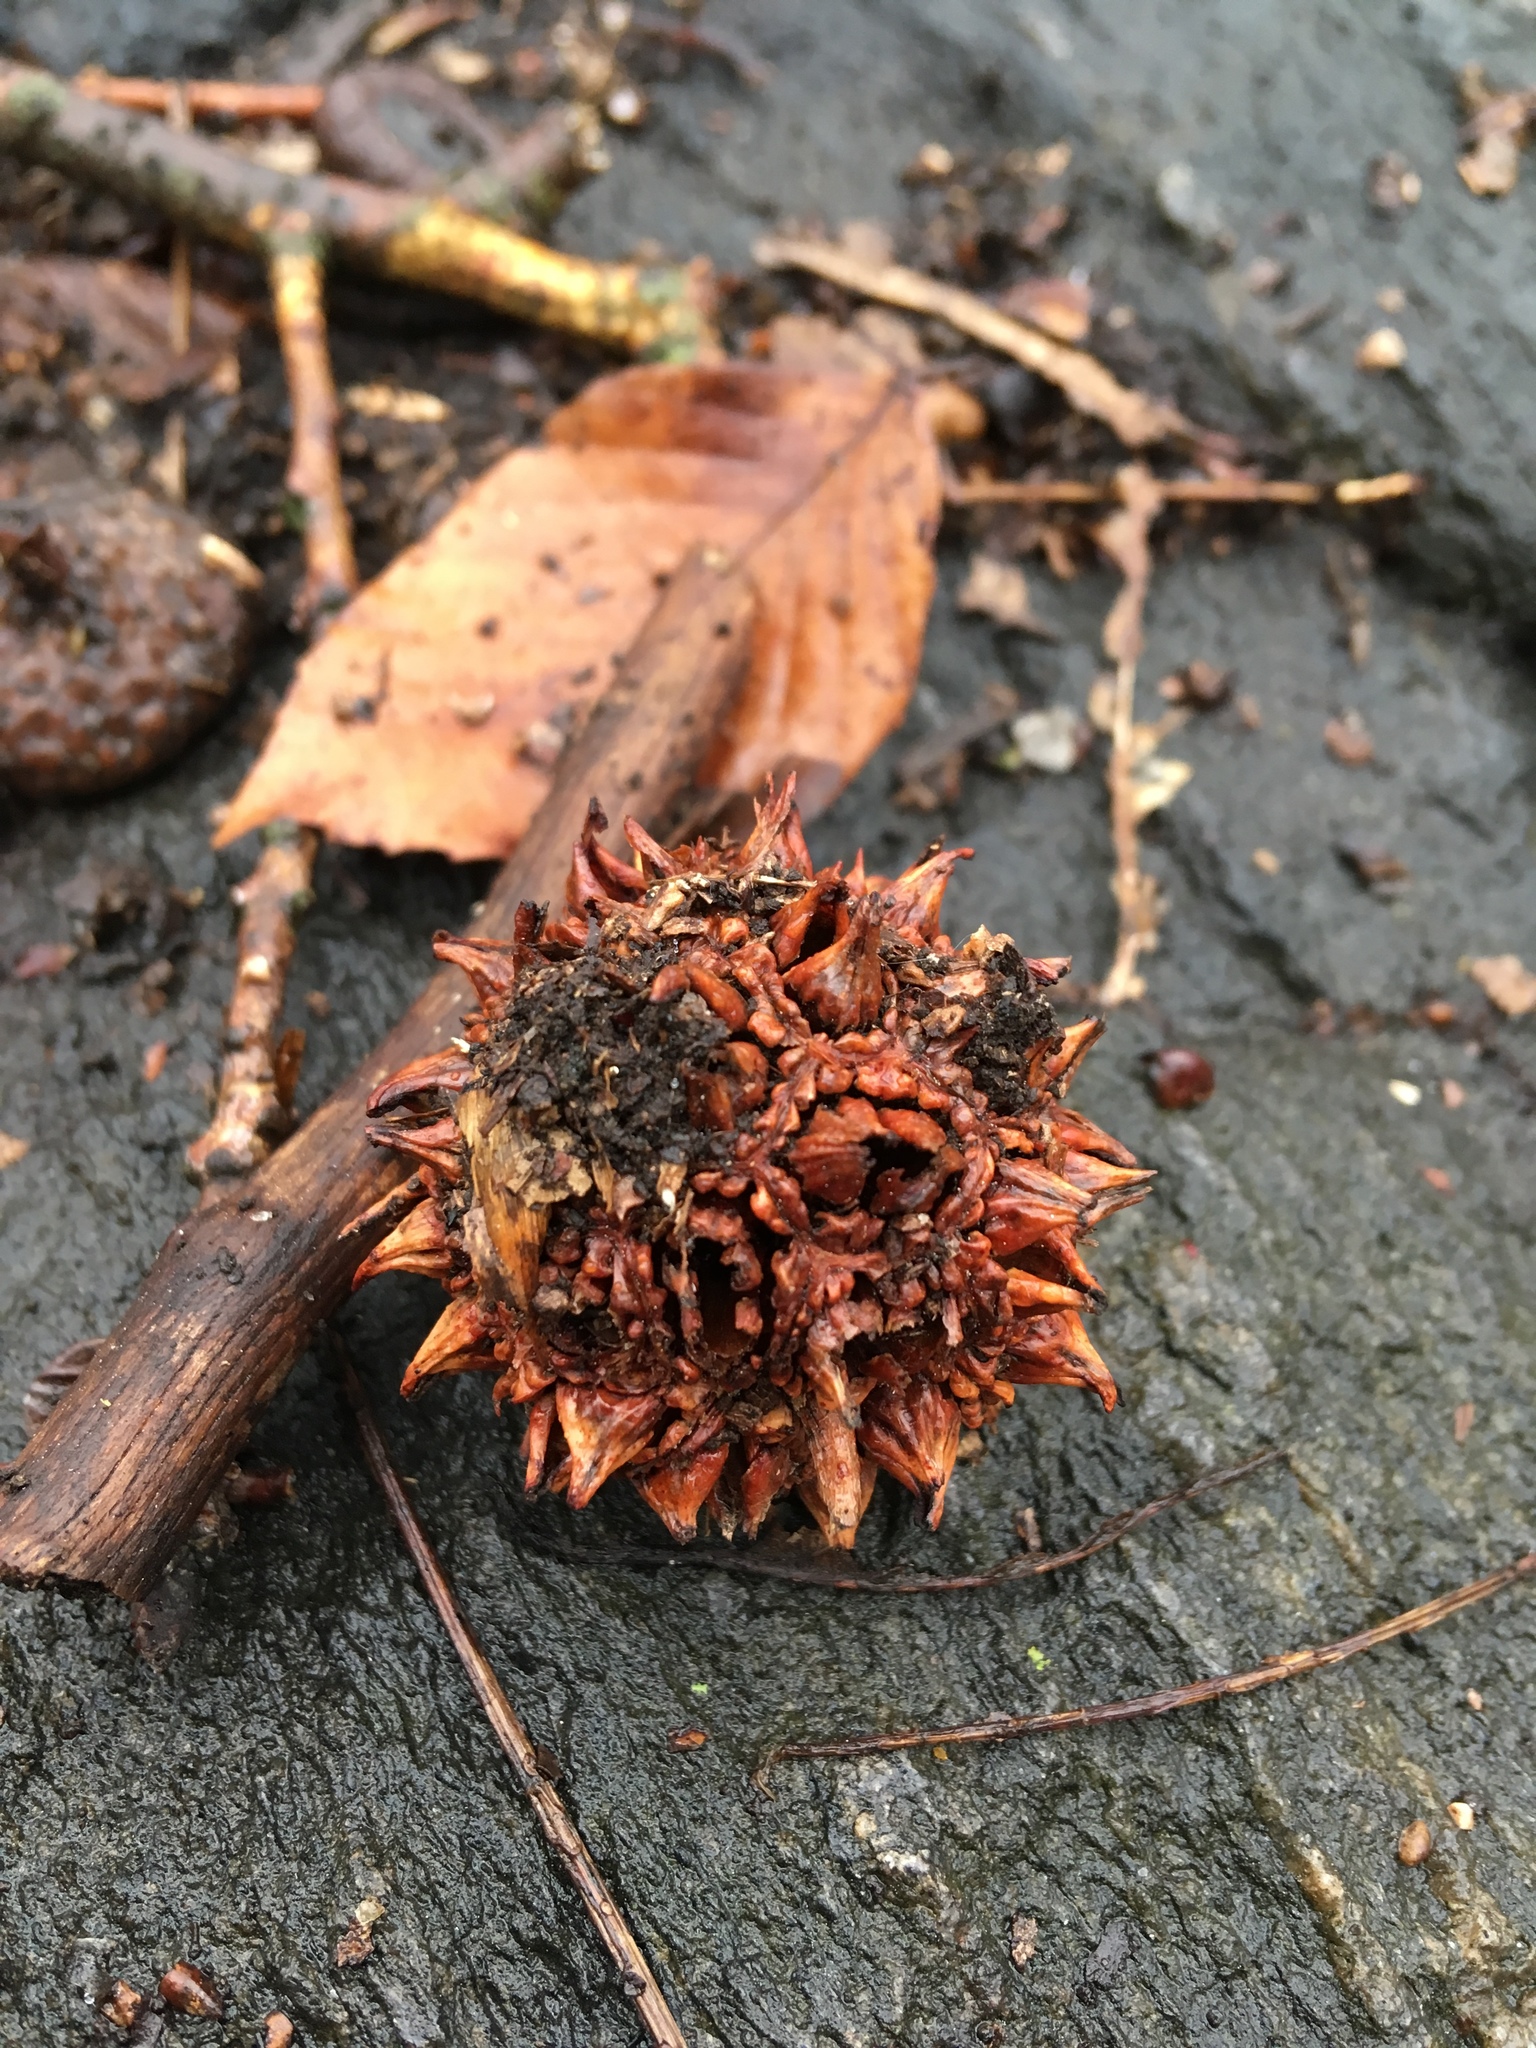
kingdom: Plantae
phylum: Tracheophyta
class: Magnoliopsida
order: Saxifragales
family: Altingiaceae
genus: Liquidambar
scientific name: Liquidambar styraciflua
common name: Sweet gum
